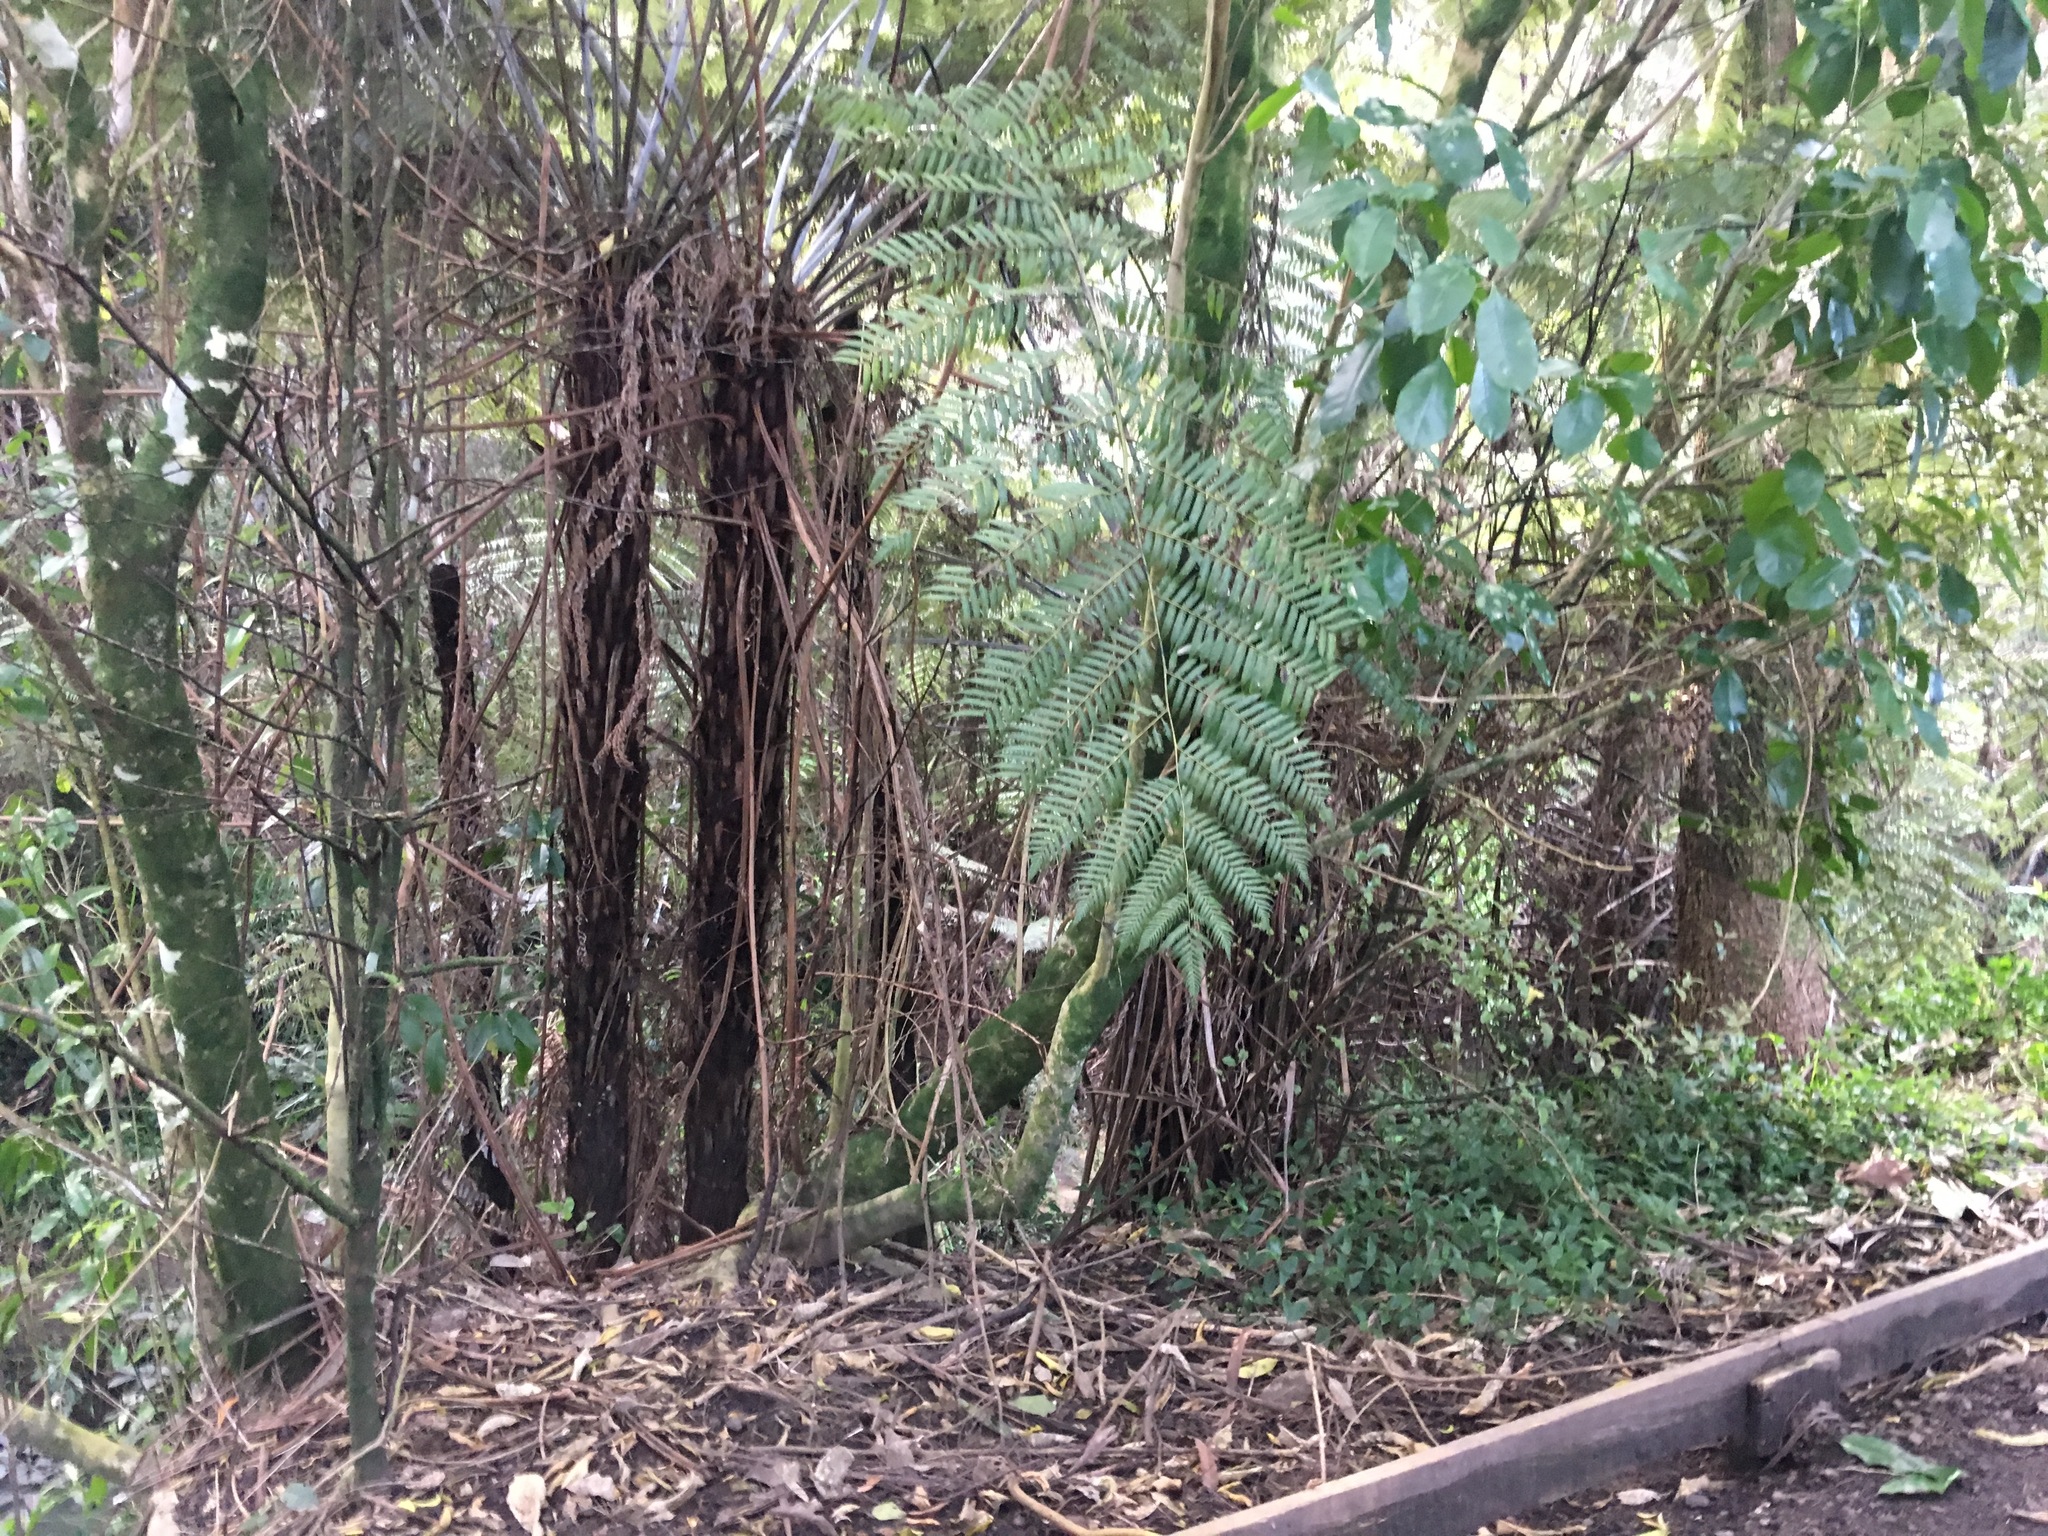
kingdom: Plantae
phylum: Tracheophyta
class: Polypodiopsida
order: Cyatheales
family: Cyatheaceae
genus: Alsophila
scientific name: Alsophila dealbata
